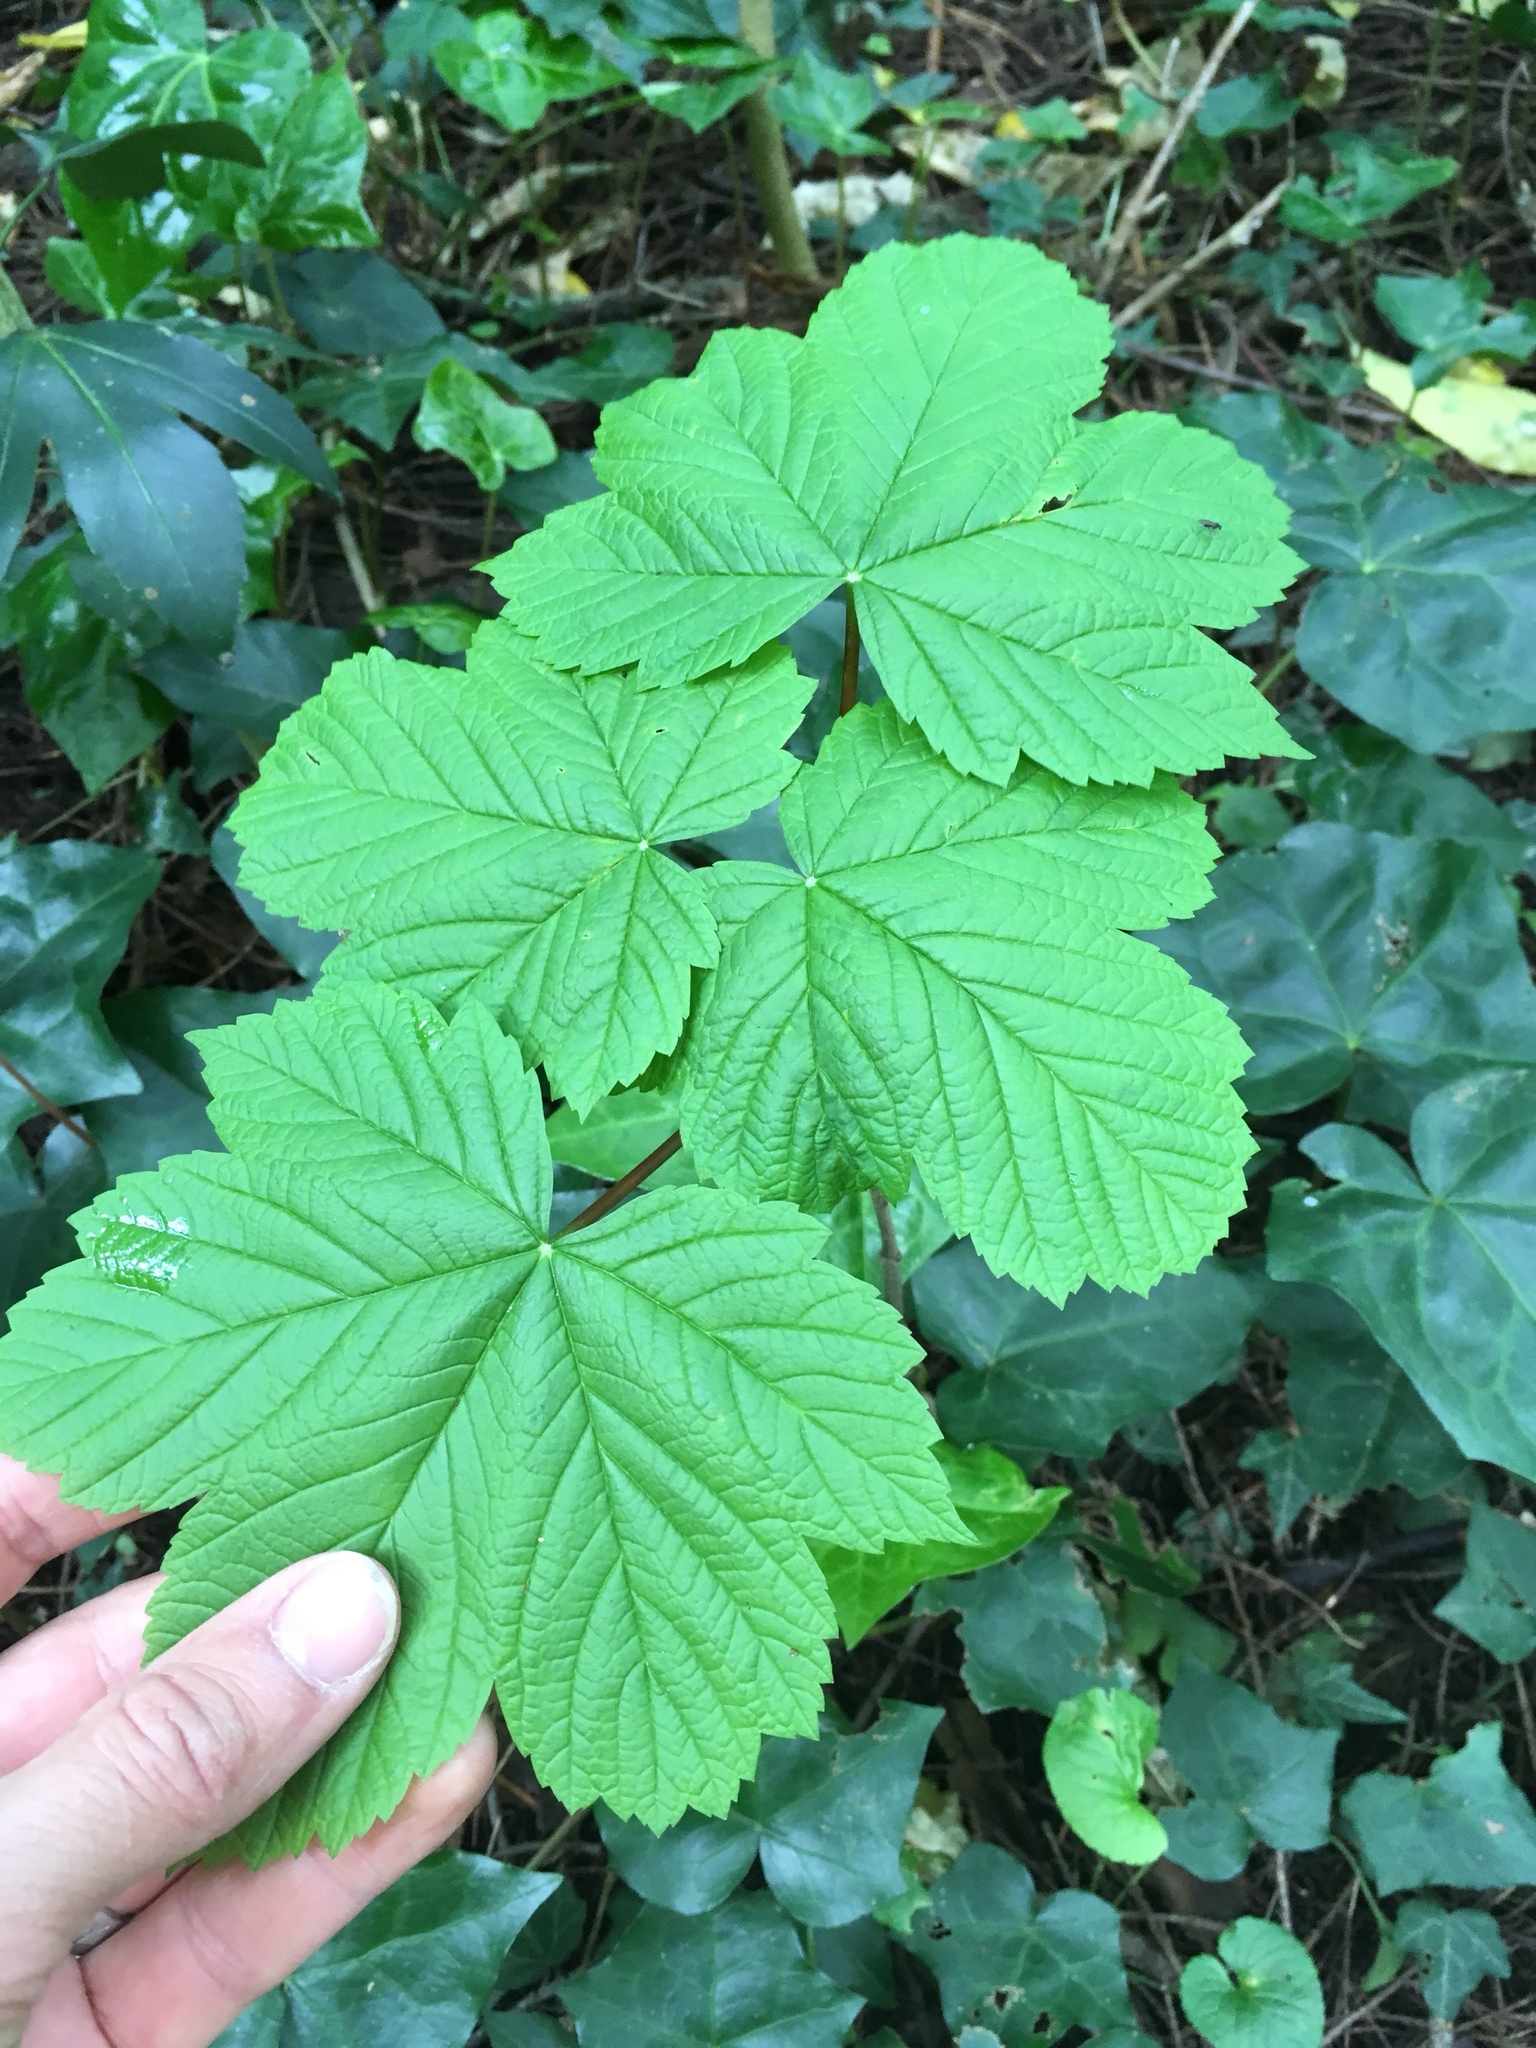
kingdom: Plantae
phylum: Tracheophyta
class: Magnoliopsida
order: Sapindales
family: Sapindaceae
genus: Acer
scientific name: Acer pseudoplatanus
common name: Sycamore
